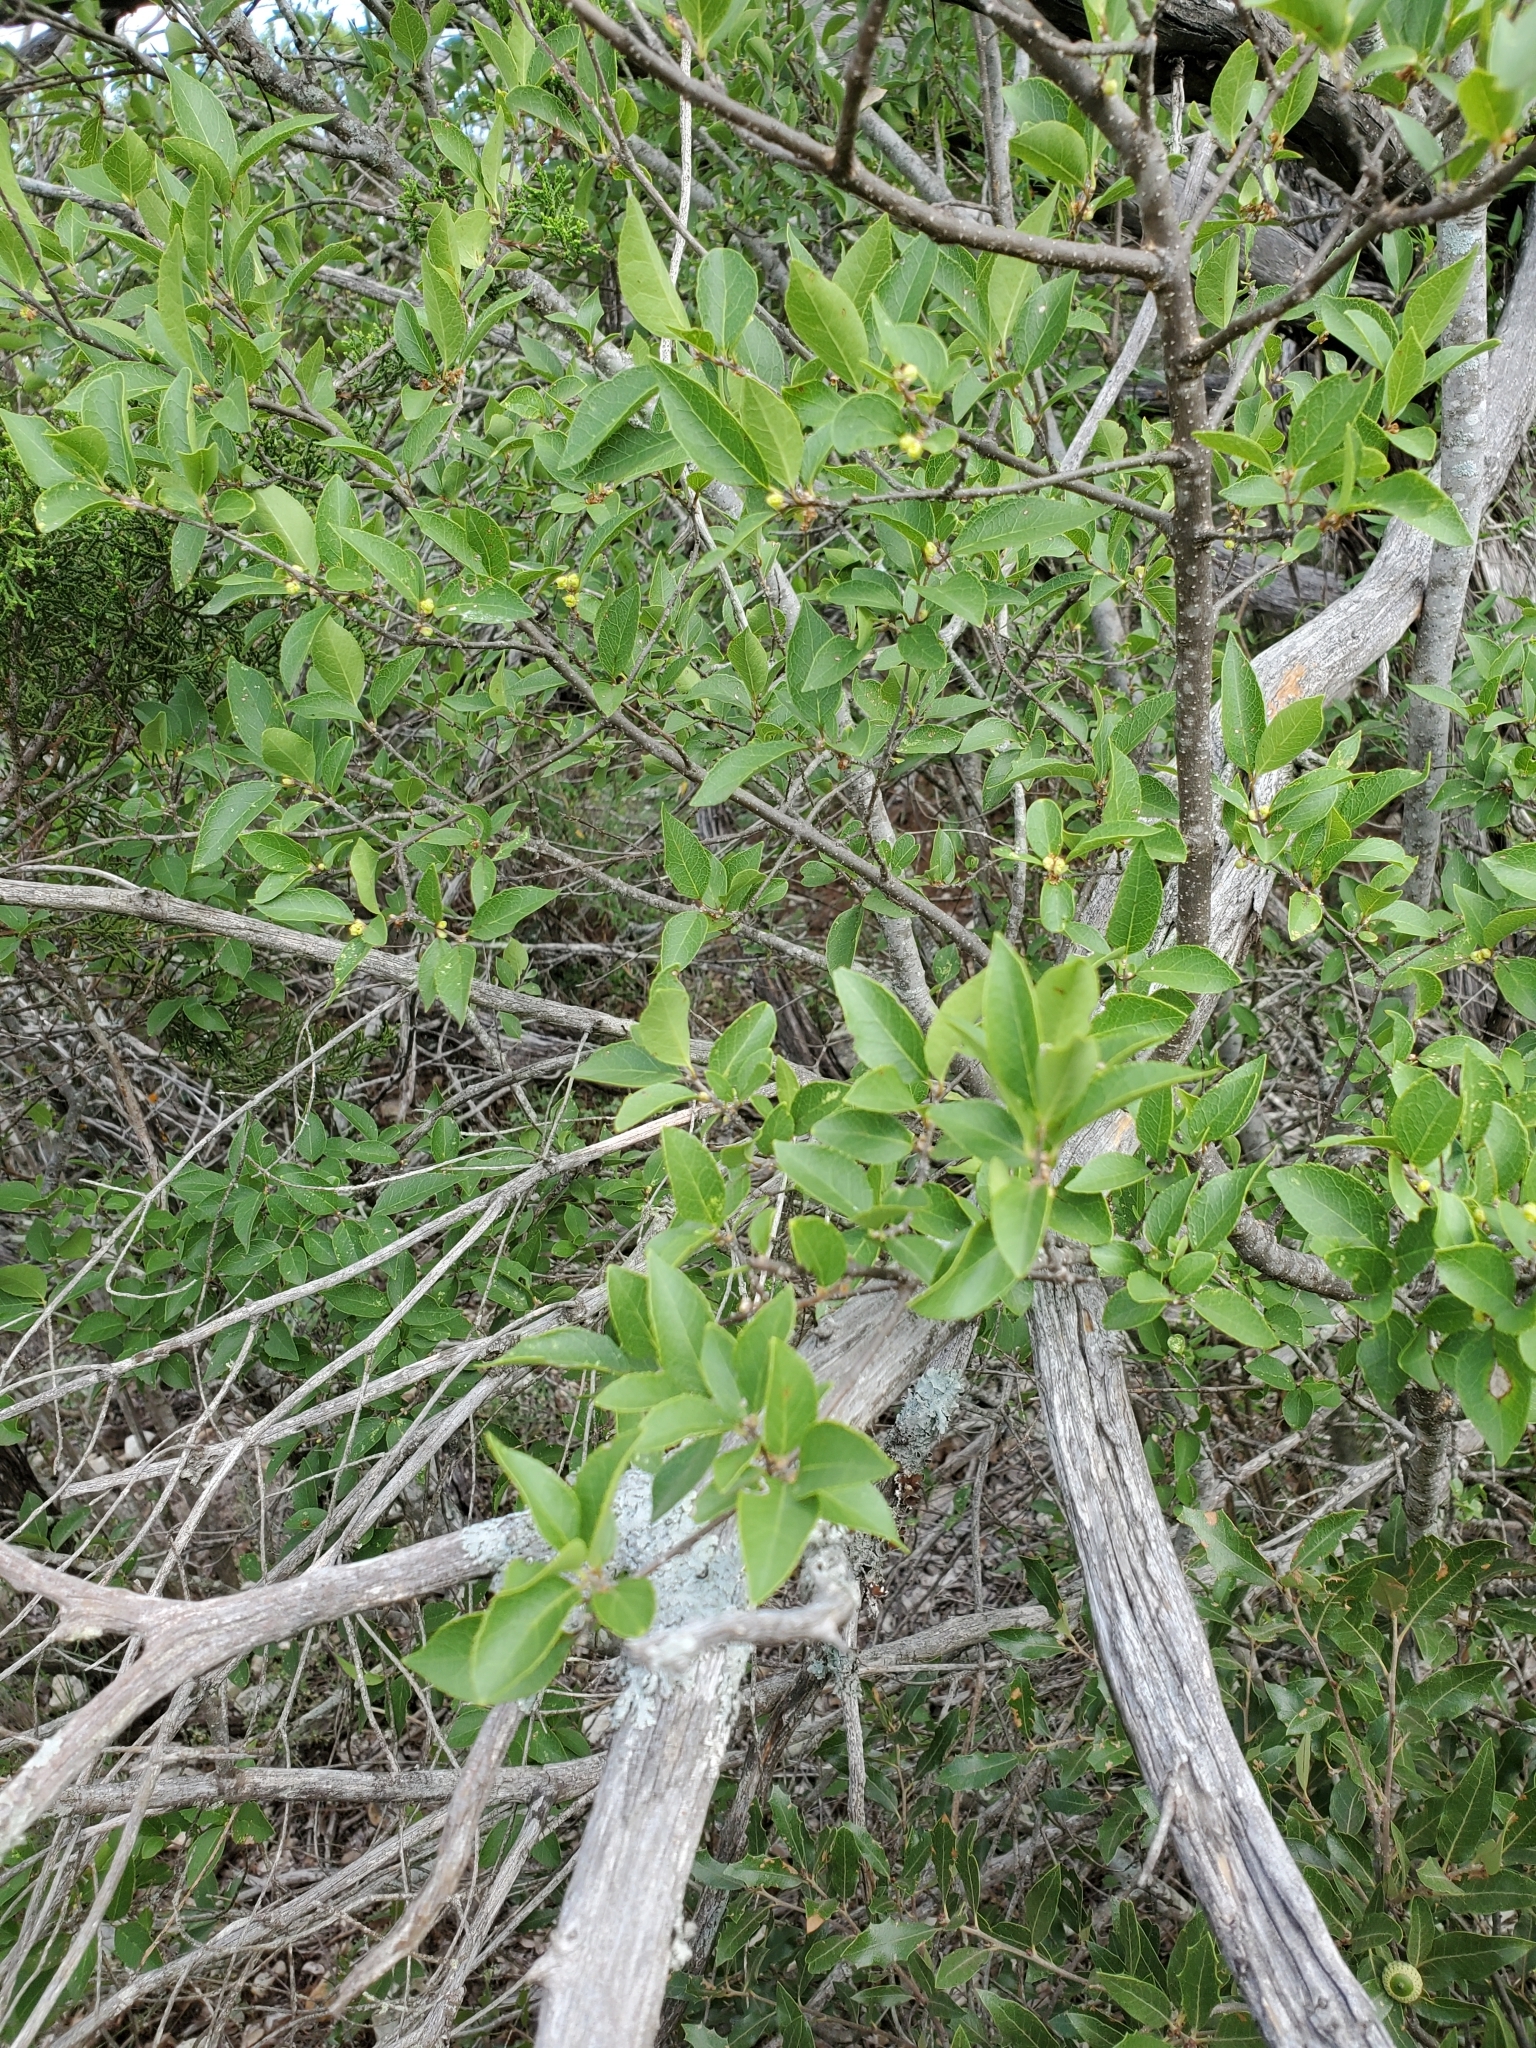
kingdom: Plantae
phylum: Tracheophyta
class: Magnoliopsida
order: Lamiales
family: Oleaceae
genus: Forestiera
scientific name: Forestiera reticulata
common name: Netleaf swamp-privet
